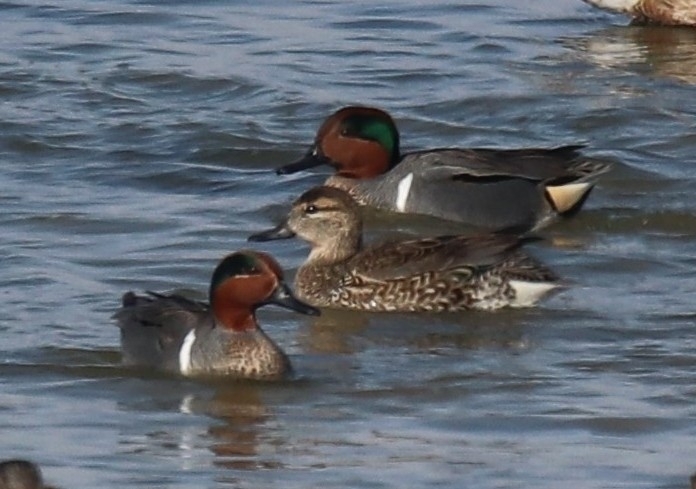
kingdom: Animalia
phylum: Chordata
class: Aves
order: Anseriformes
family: Anatidae
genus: Anas
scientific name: Anas carolinensis
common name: Green-winged teal
